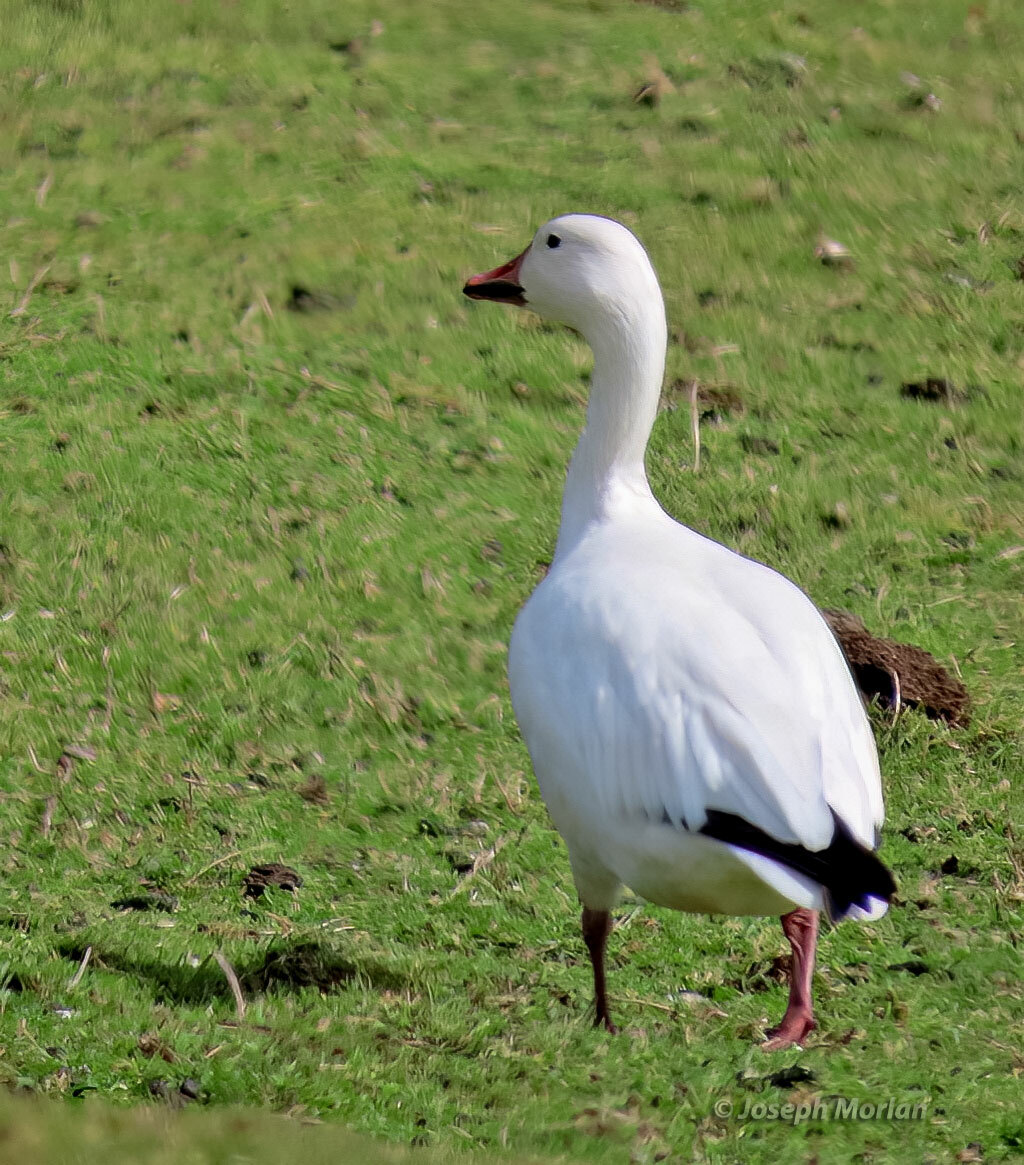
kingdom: Animalia
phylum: Chordata
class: Aves
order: Anseriformes
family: Anatidae
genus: Anser
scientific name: Anser caerulescens
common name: Snow goose
